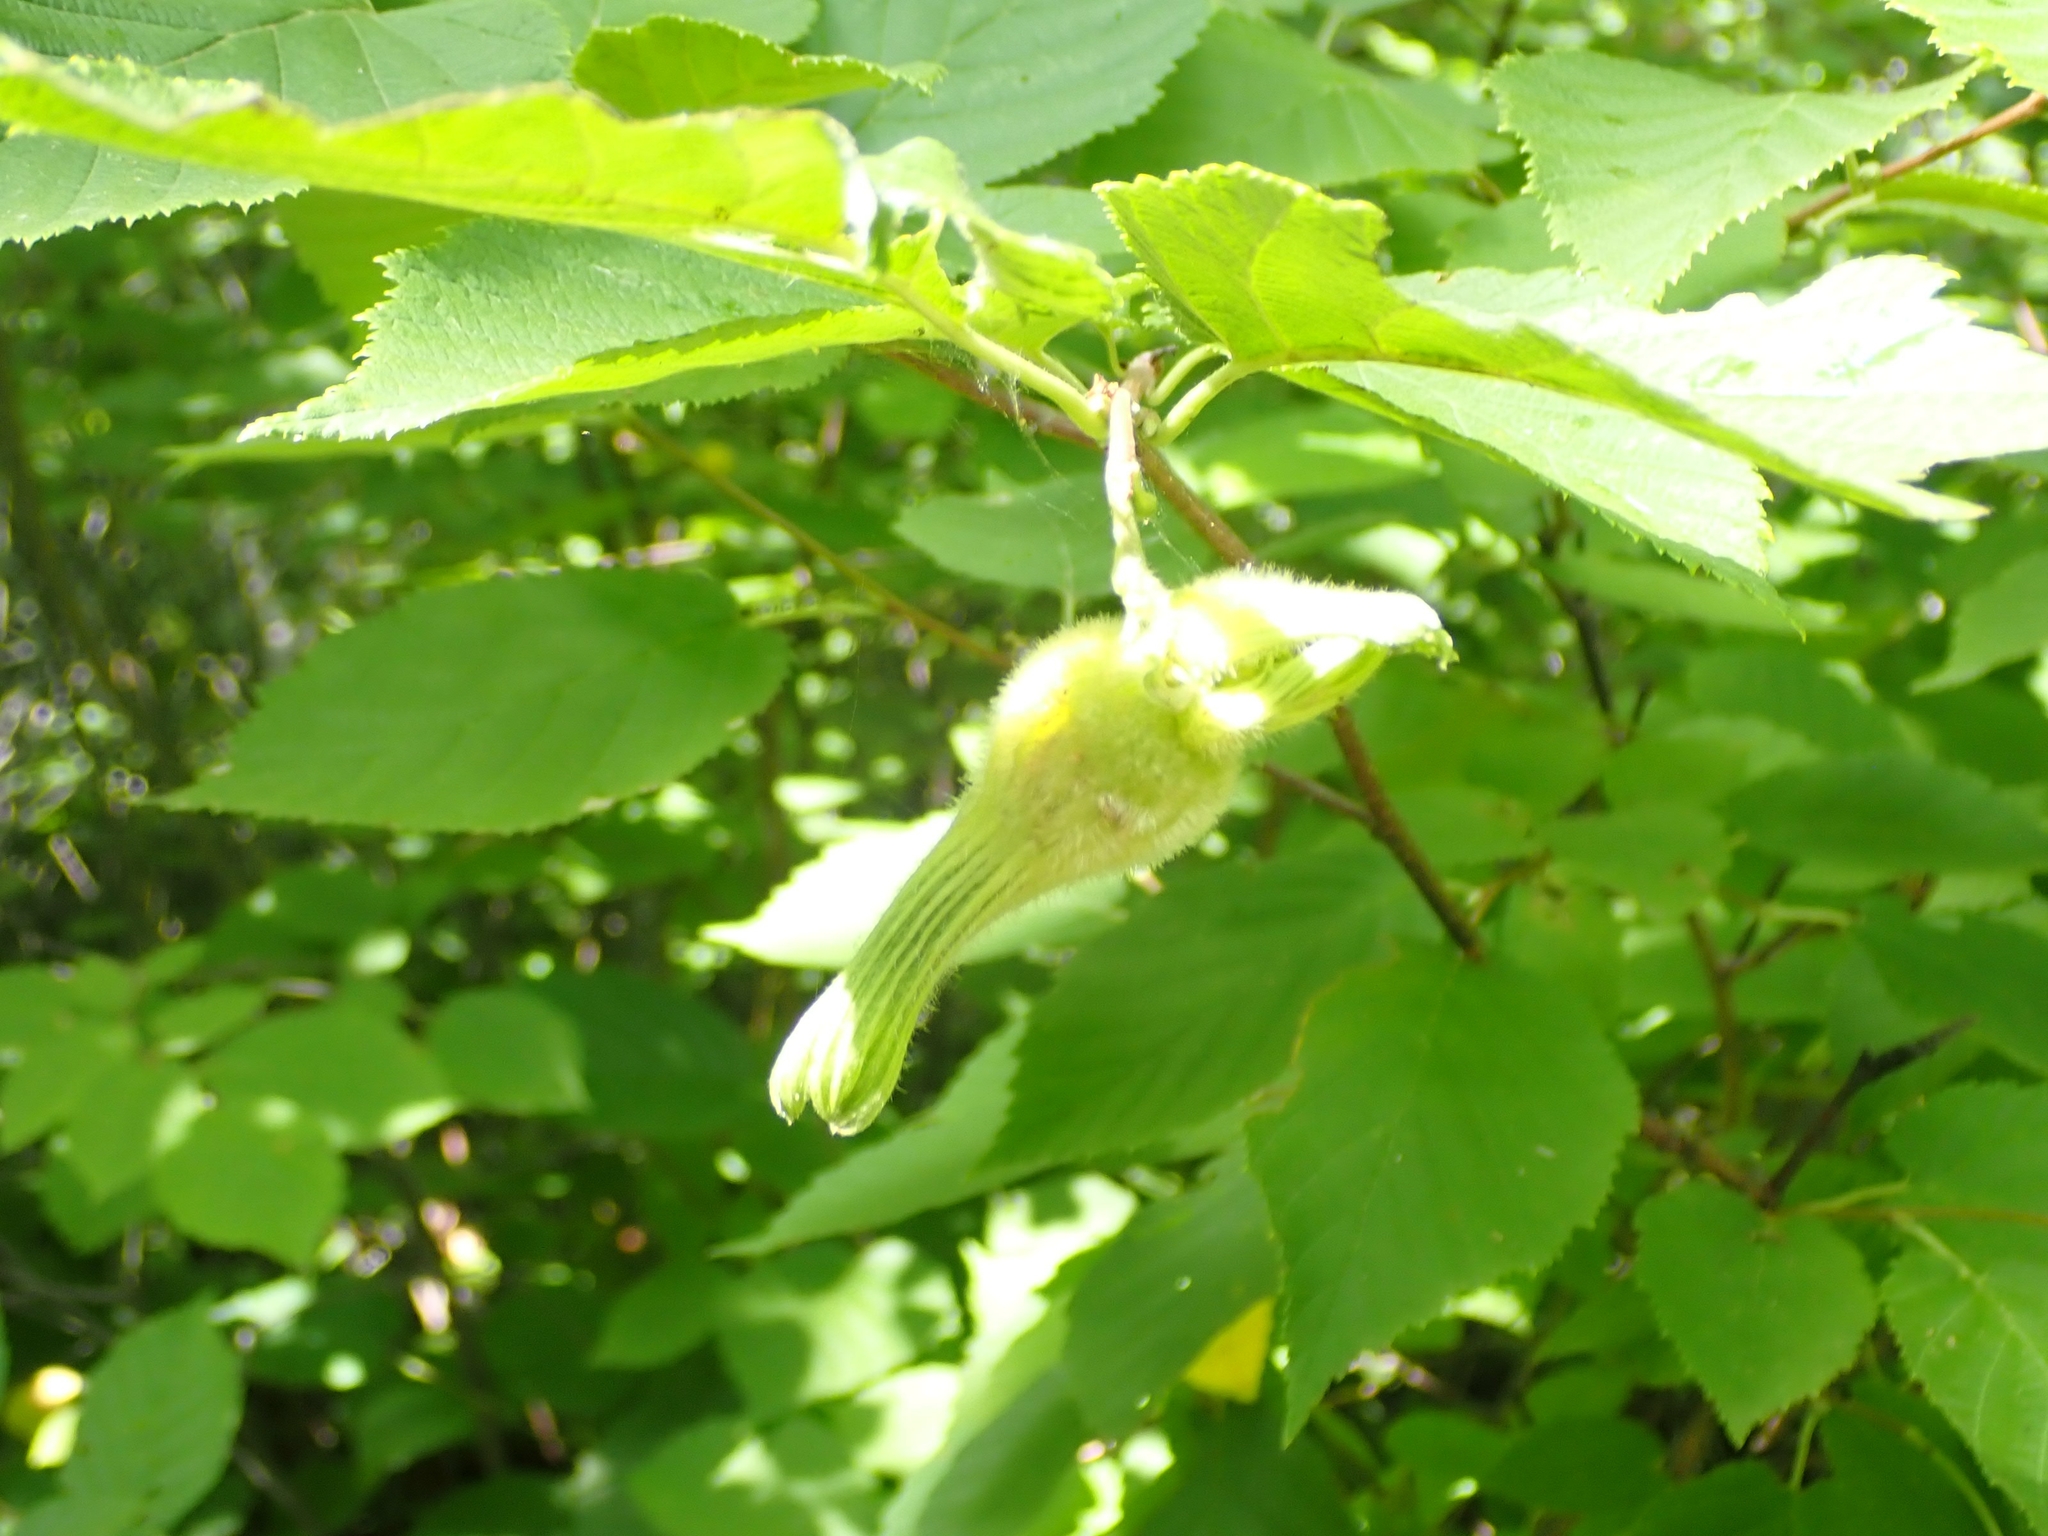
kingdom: Plantae
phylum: Tracheophyta
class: Magnoliopsida
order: Fagales
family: Betulaceae
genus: Corylus
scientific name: Corylus cornuta
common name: Beaked hazel
